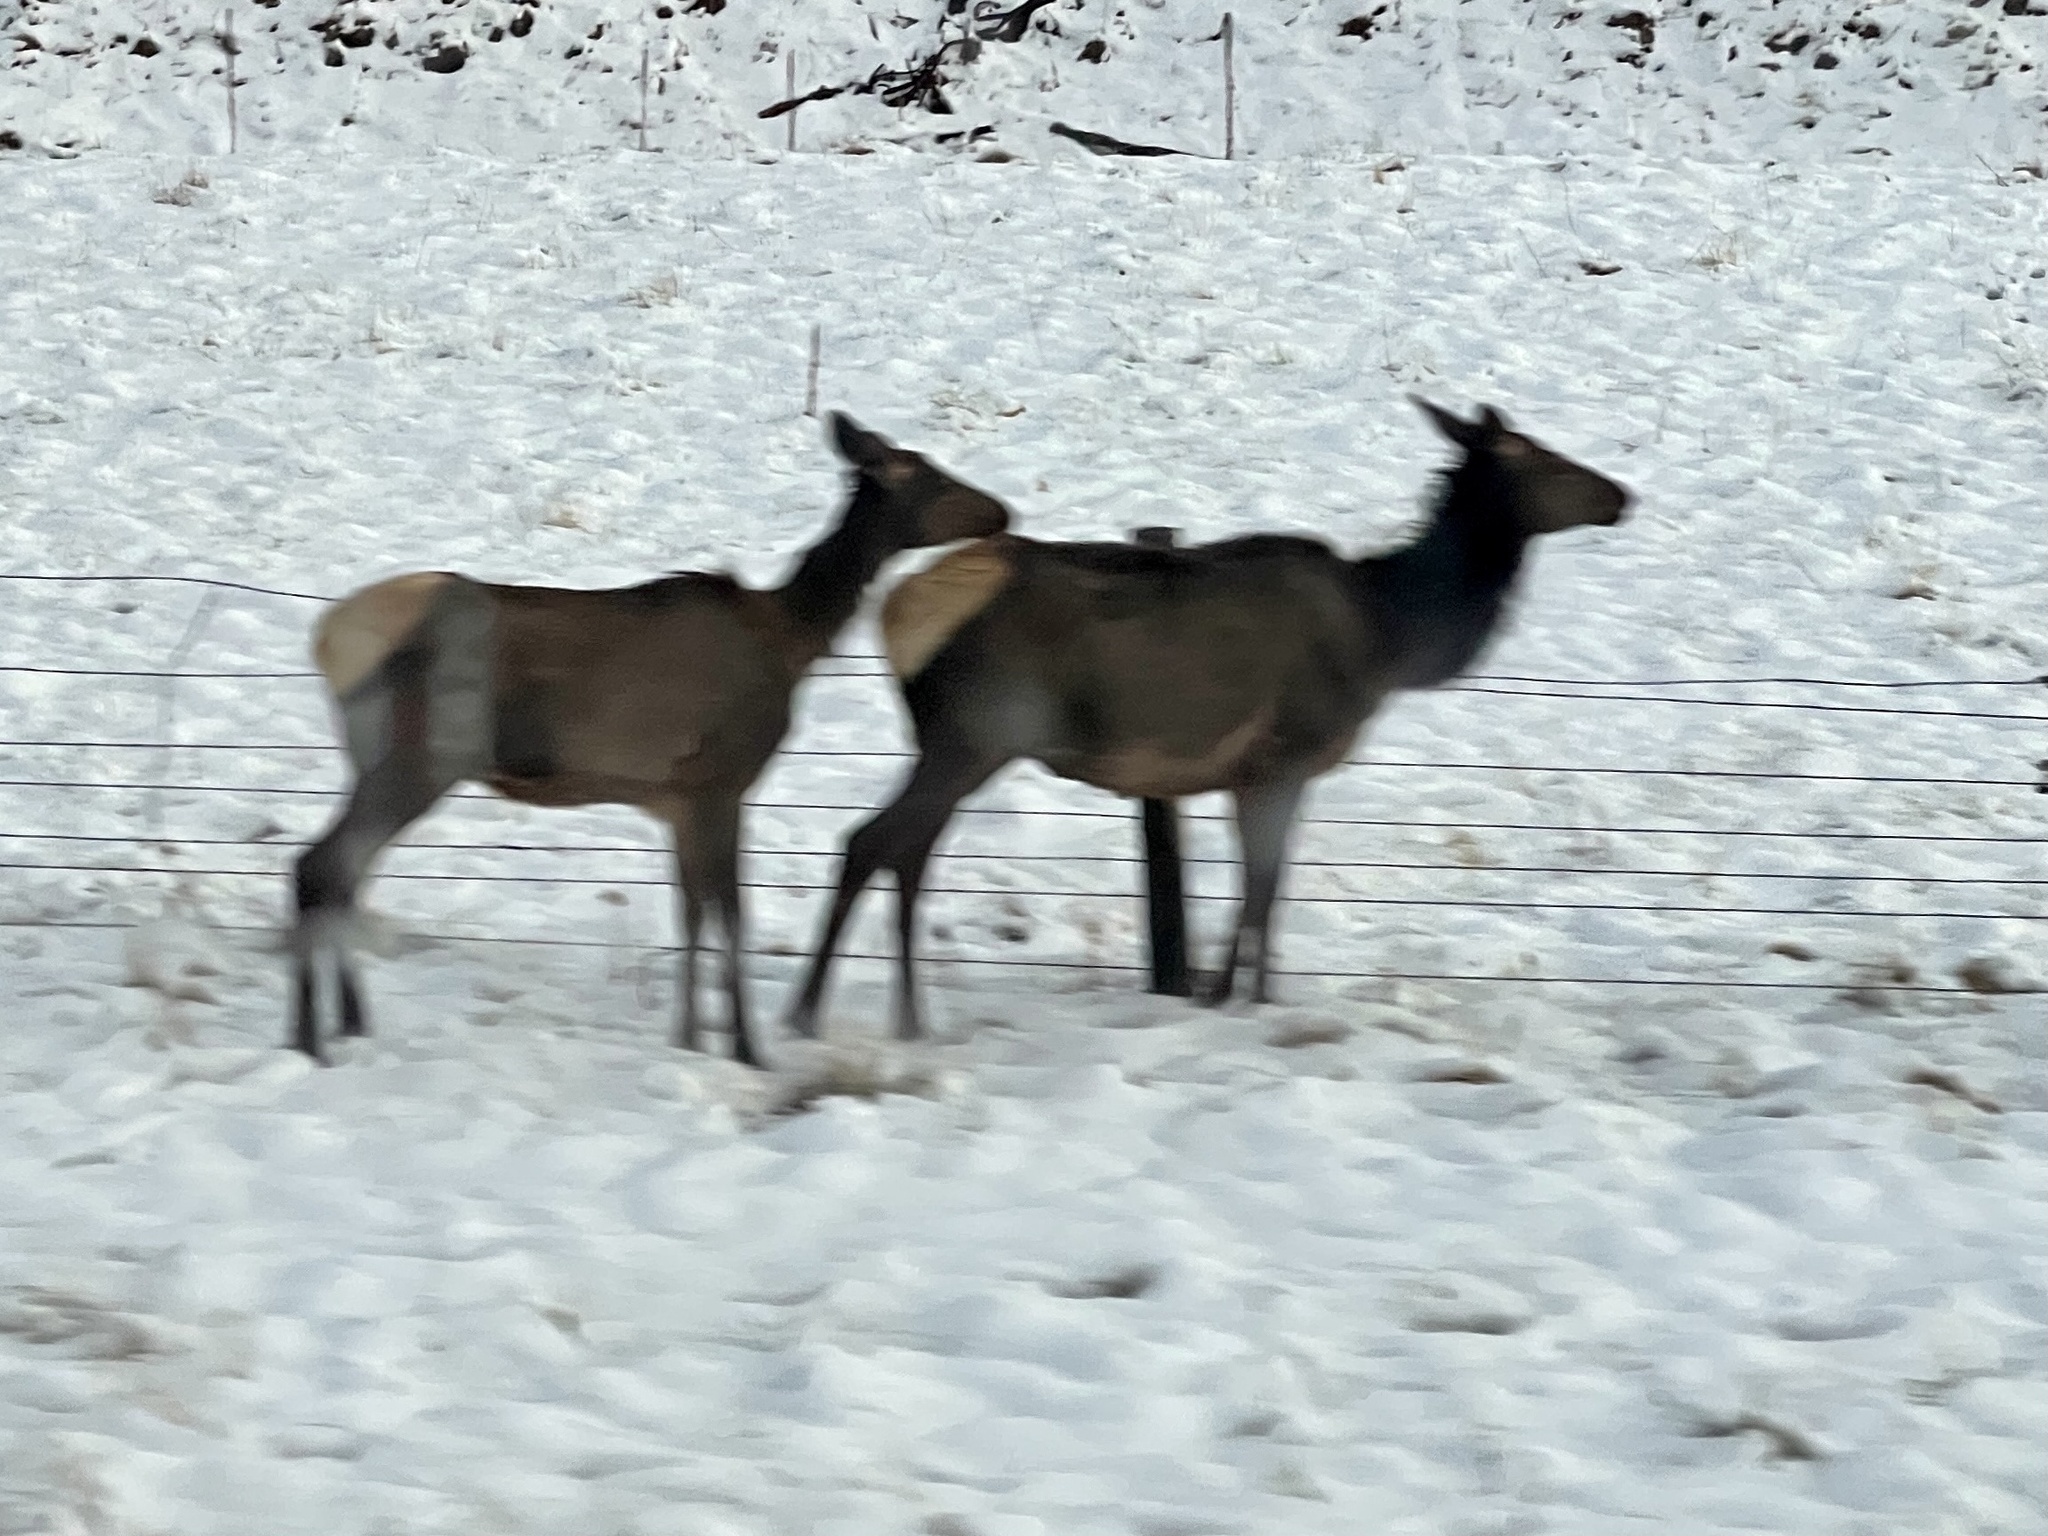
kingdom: Animalia
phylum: Chordata
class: Mammalia
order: Artiodactyla
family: Cervidae
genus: Cervus
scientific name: Cervus elaphus
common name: Red deer
